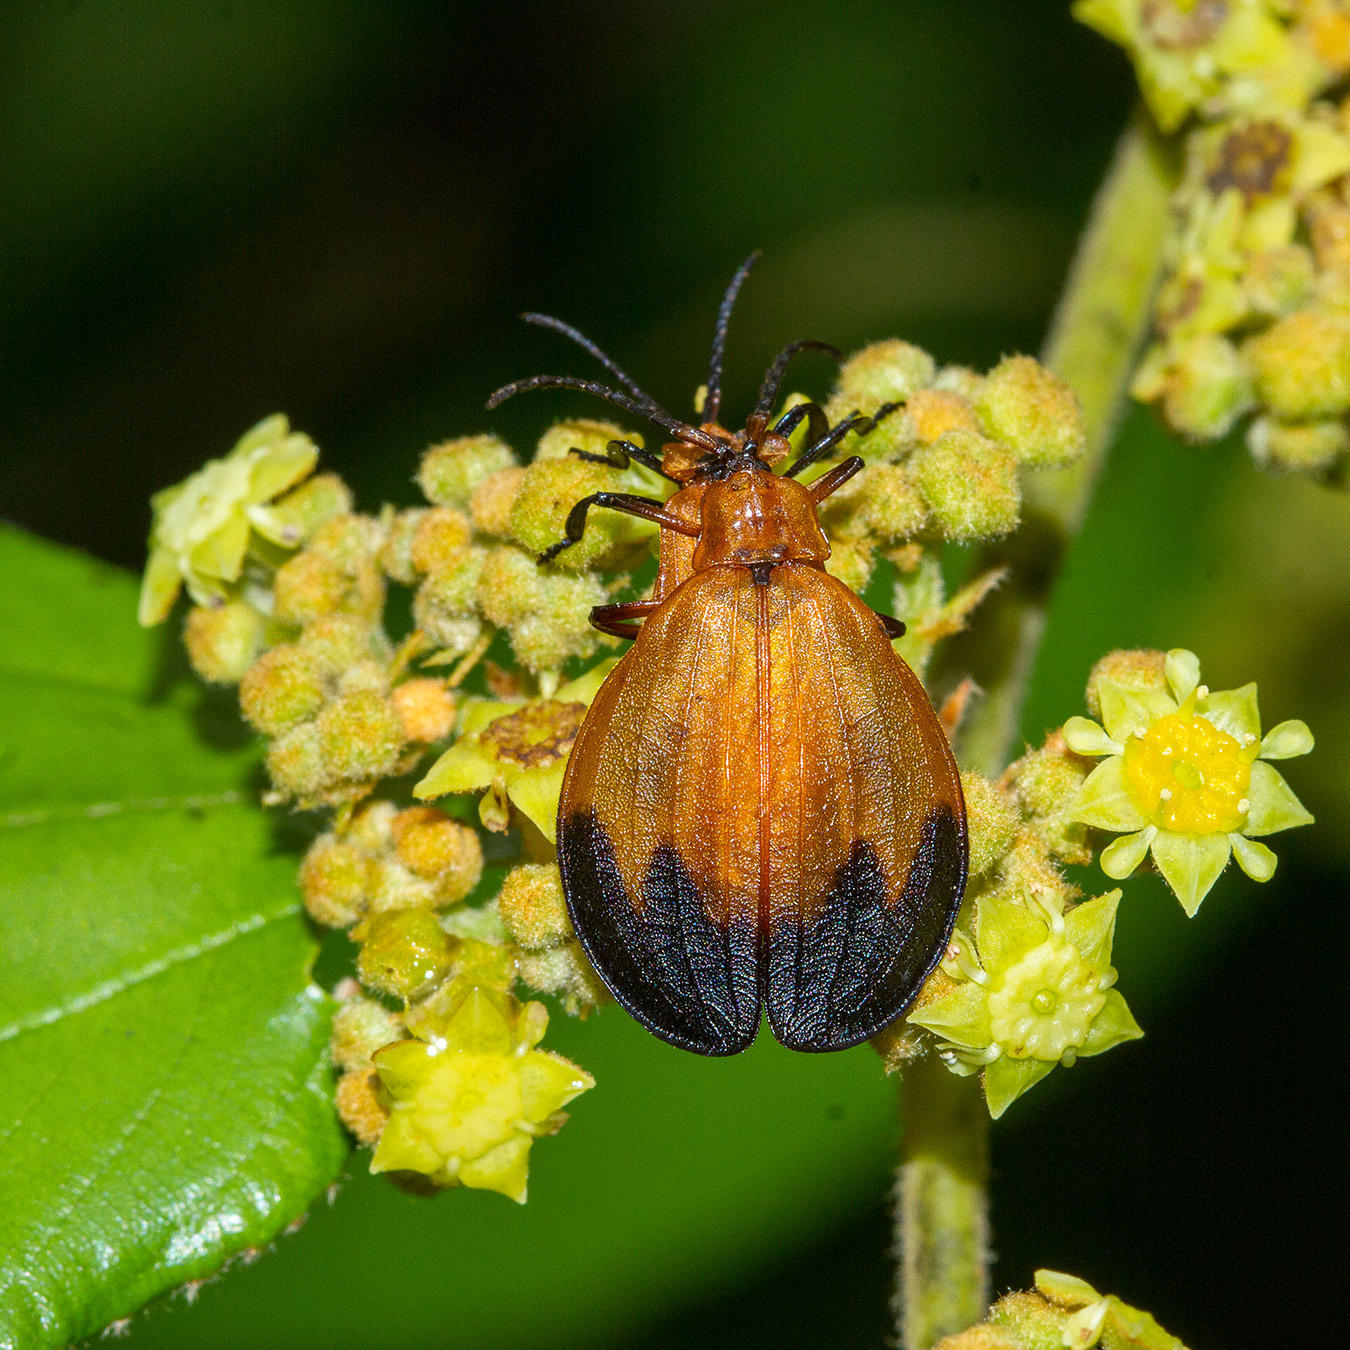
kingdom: Animalia
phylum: Arthropoda
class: Insecta
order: Coleoptera
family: Lycidae
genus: Lycus
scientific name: Lycus
